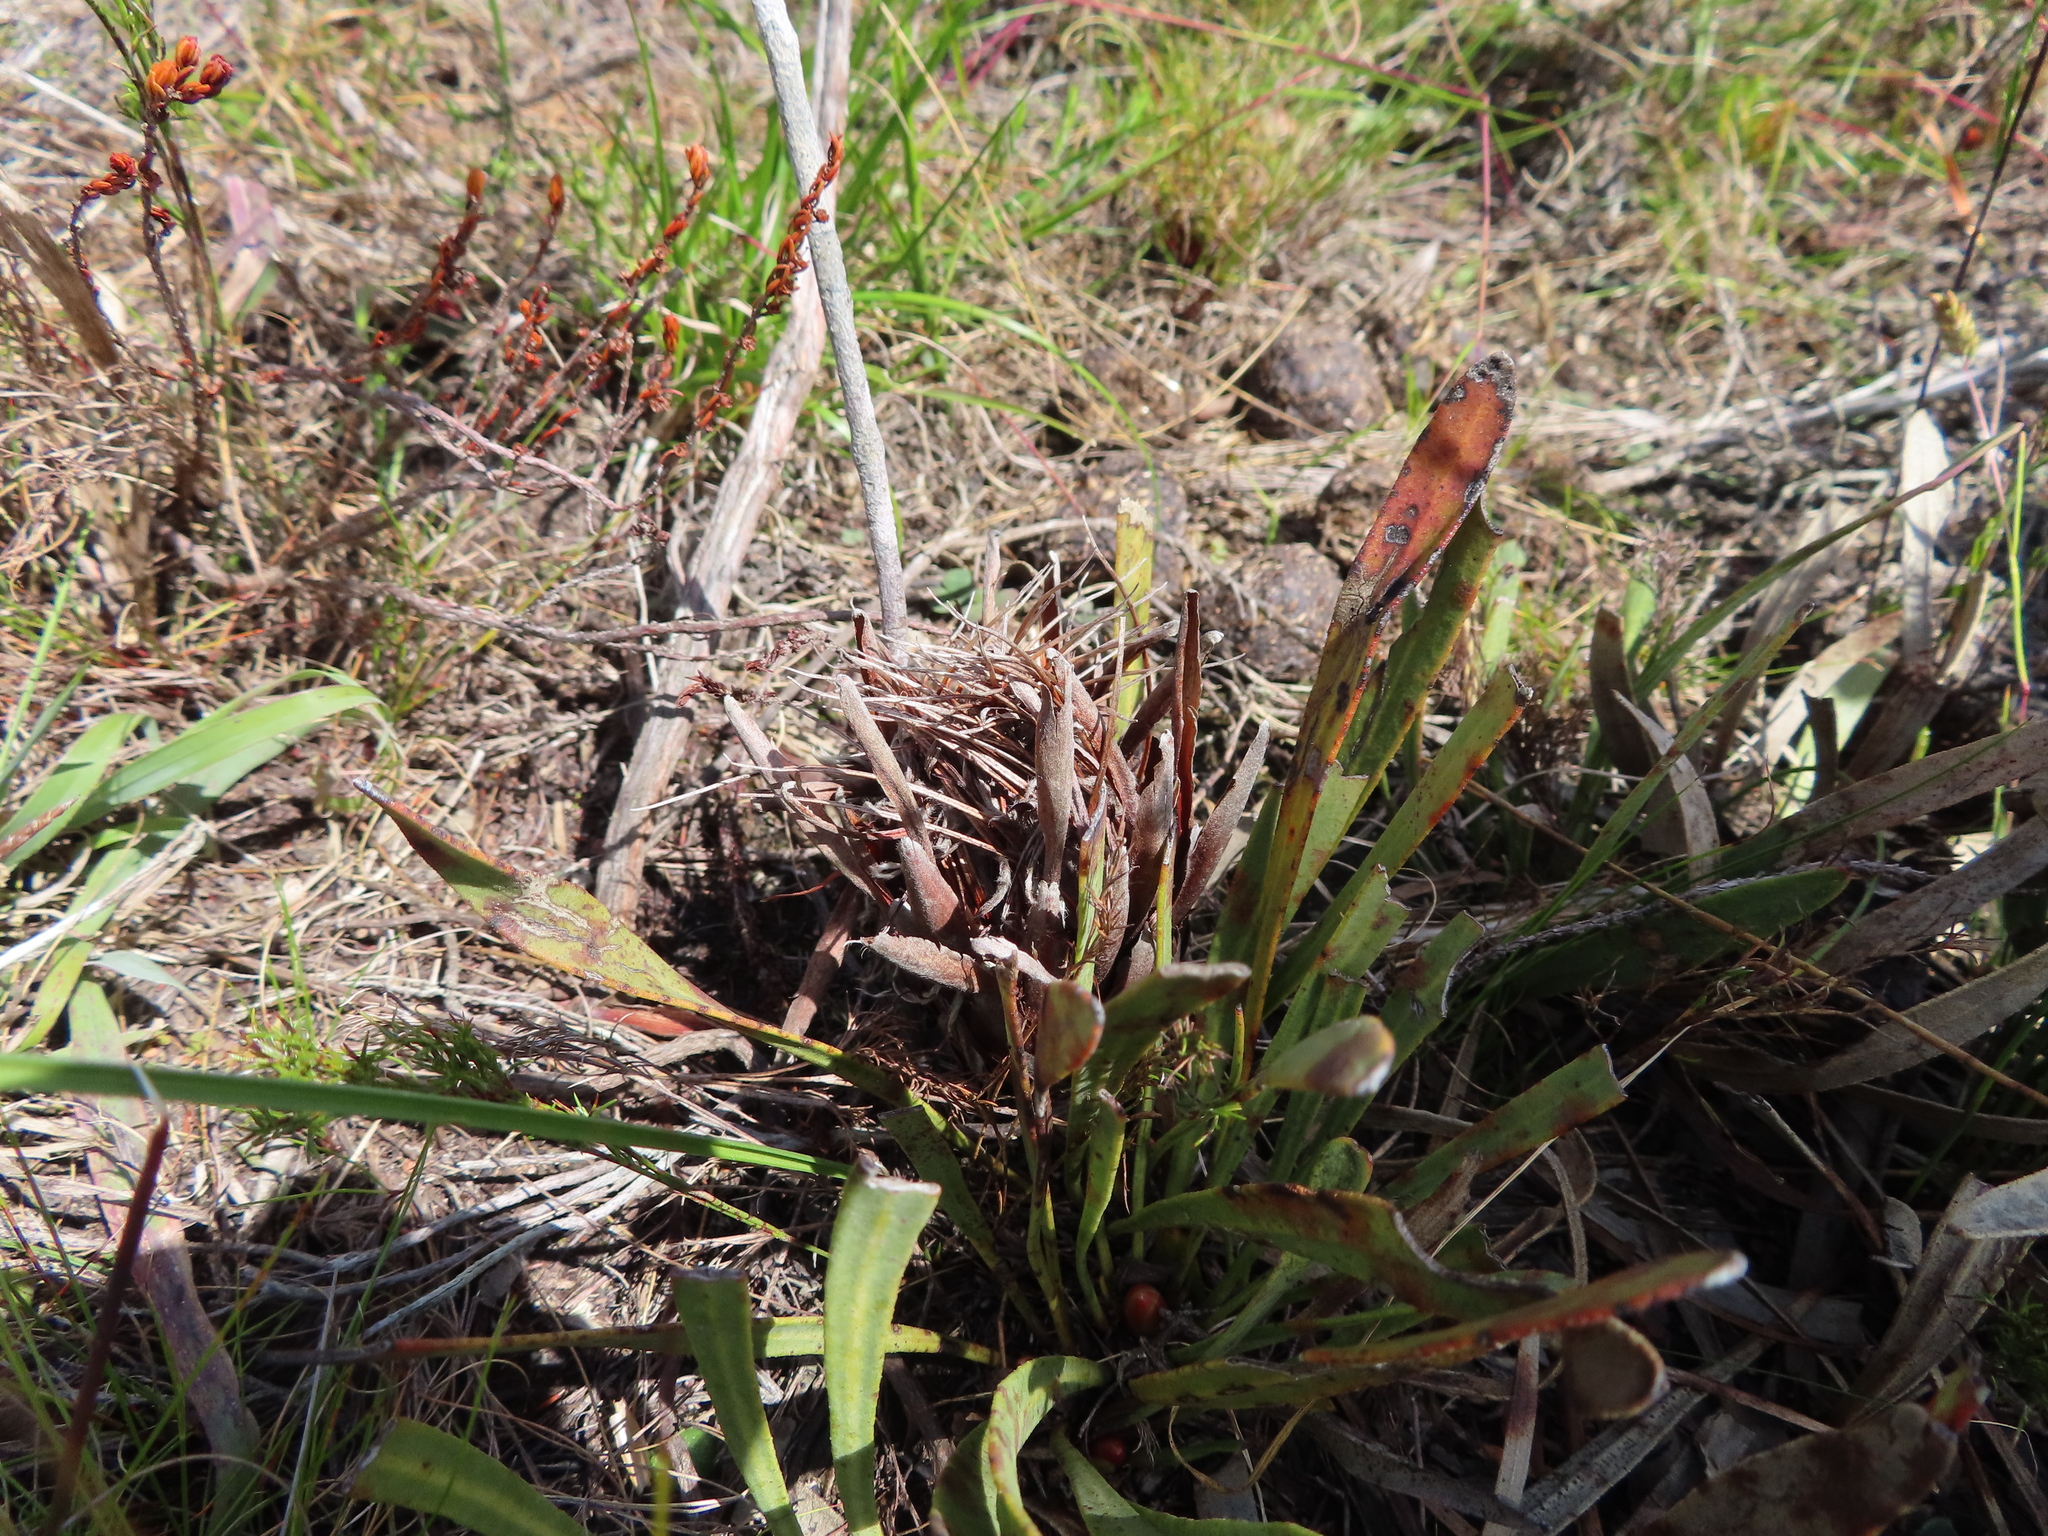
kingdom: Plantae
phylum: Tracheophyta
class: Magnoliopsida
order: Proteales
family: Proteaceae
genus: Protea
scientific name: Protea aspera
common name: Rough-leaf sugarbush
